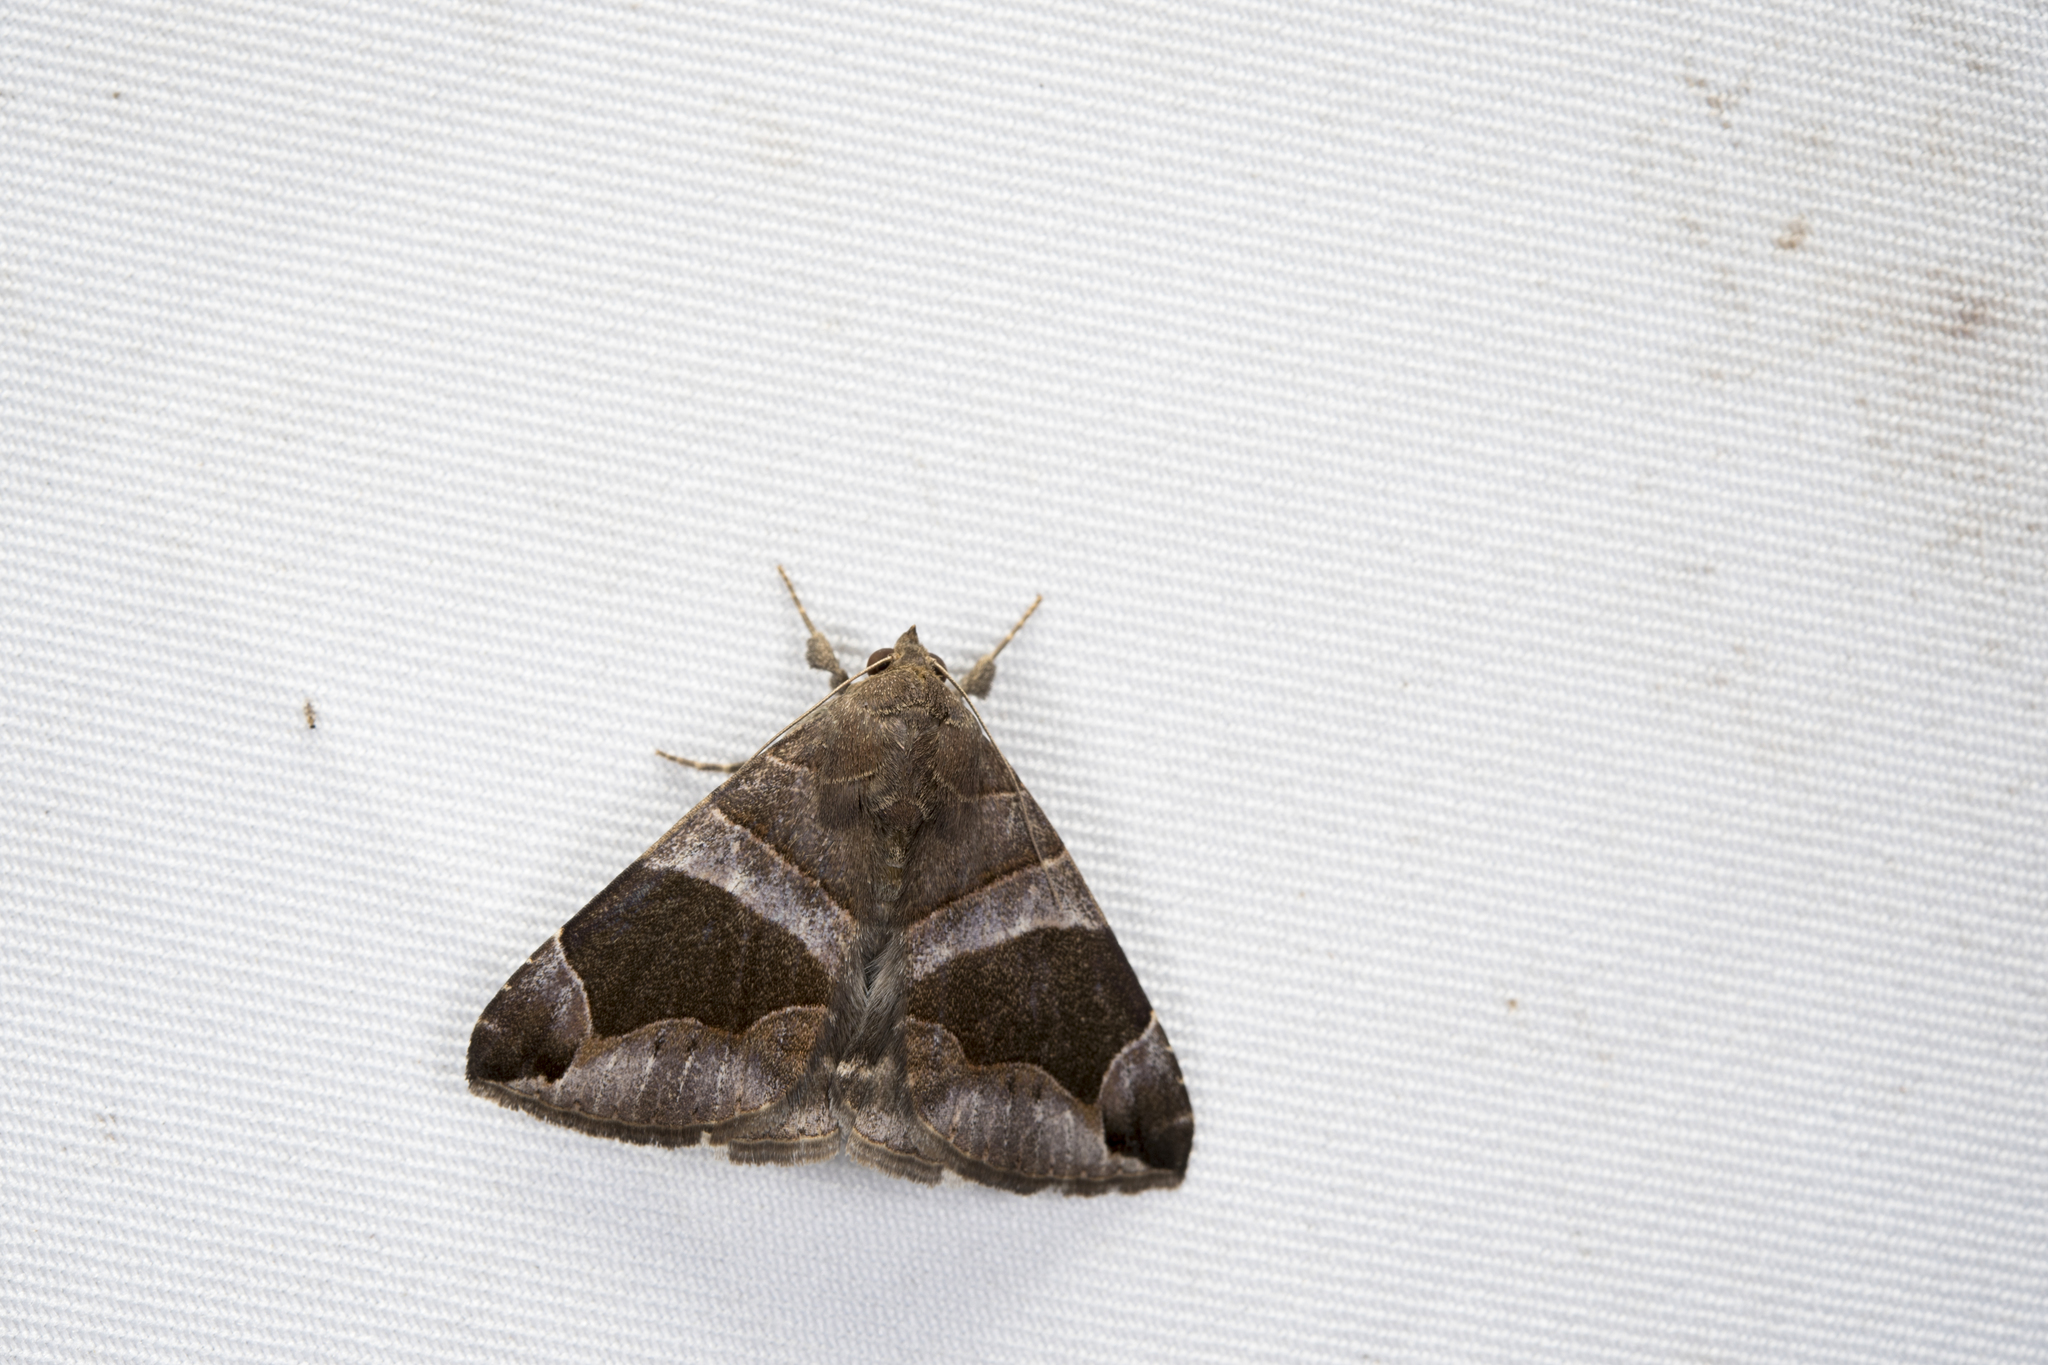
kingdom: Animalia
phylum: Arthropoda
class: Insecta
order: Lepidoptera
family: Erebidae
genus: Bastilla
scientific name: Bastilla vitiensis
